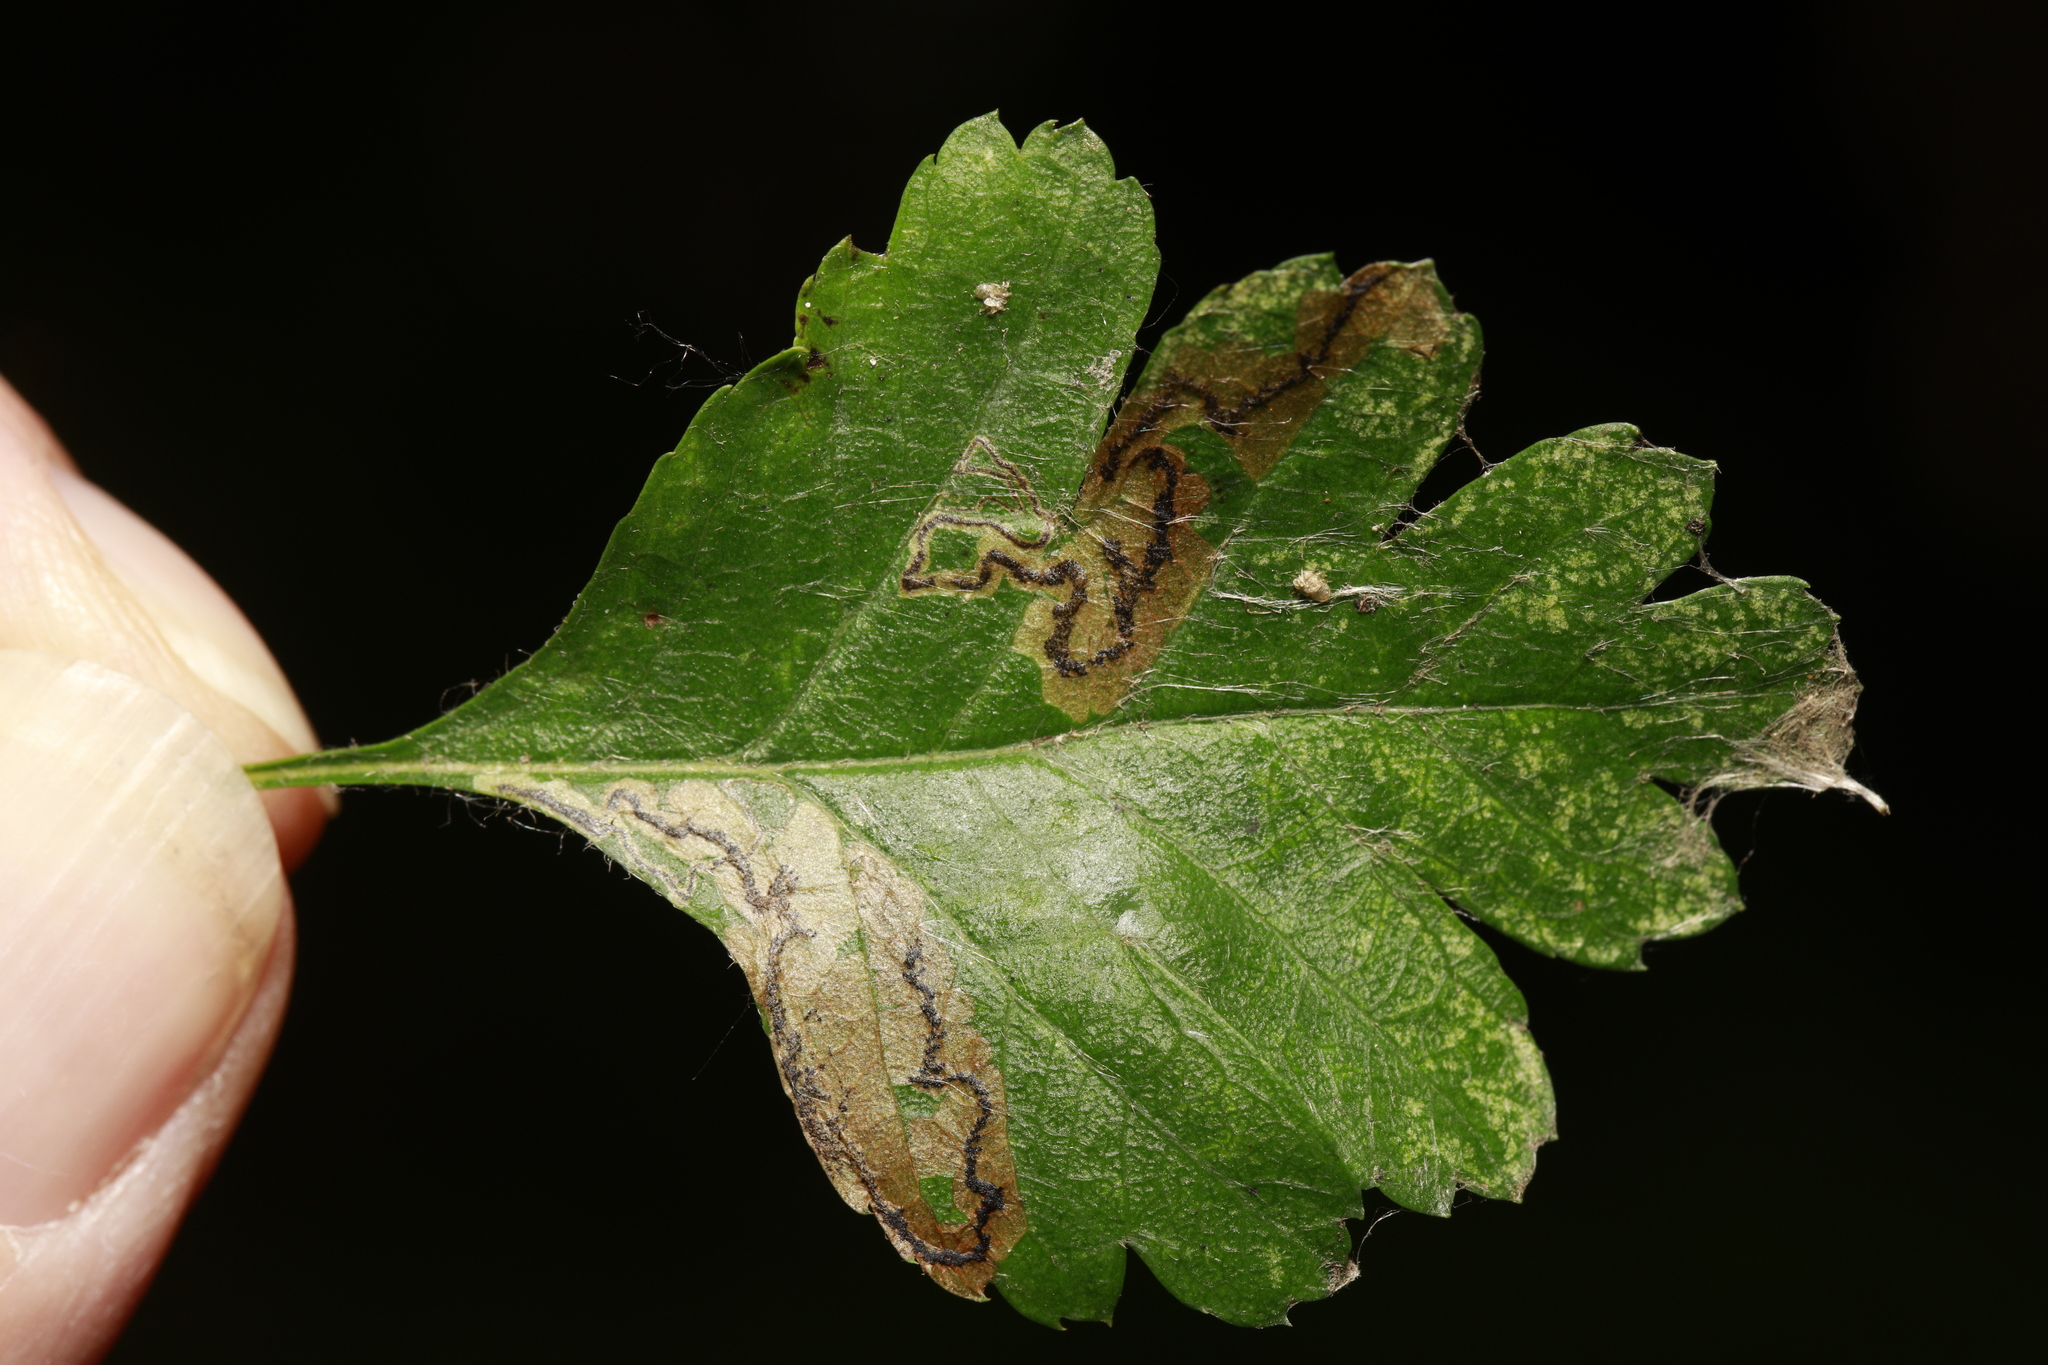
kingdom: Animalia
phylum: Arthropoda
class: Insecta
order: Lepidoptera
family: Nepticulidae
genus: Stigmella
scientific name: Stigmella regiella
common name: Purple-shot pigmy
